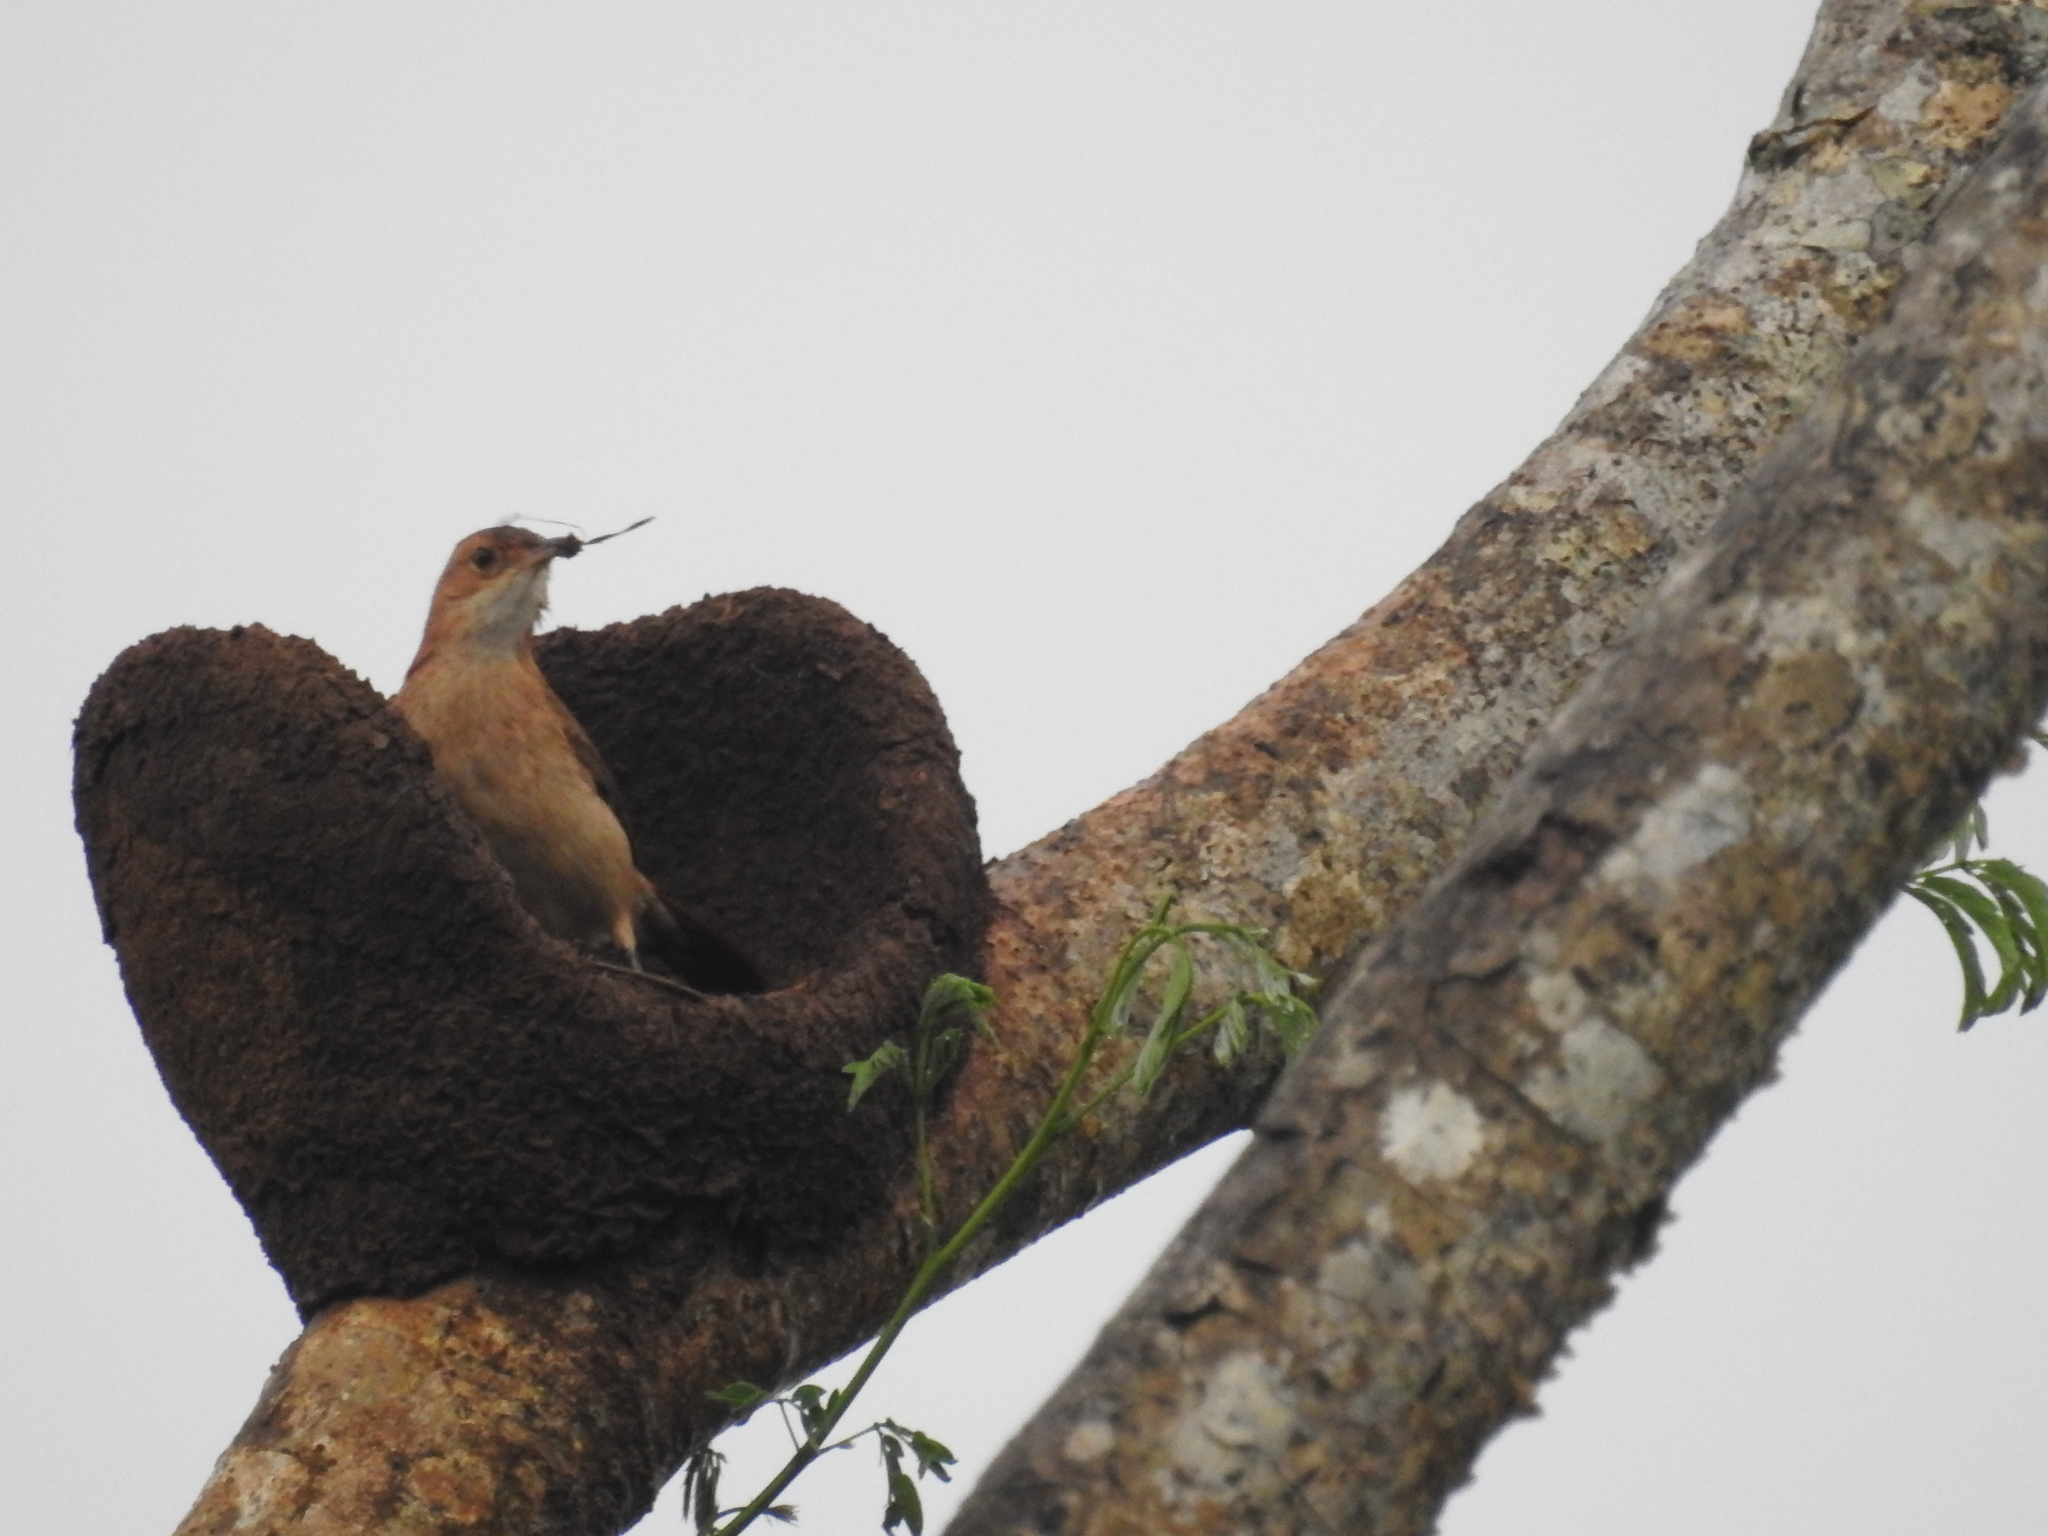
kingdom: Animalia
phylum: Chordata
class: Aves
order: Passeriformes
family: Furnariidae
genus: Furnarius
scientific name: Furnarius rufus
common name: Rufous hornero
